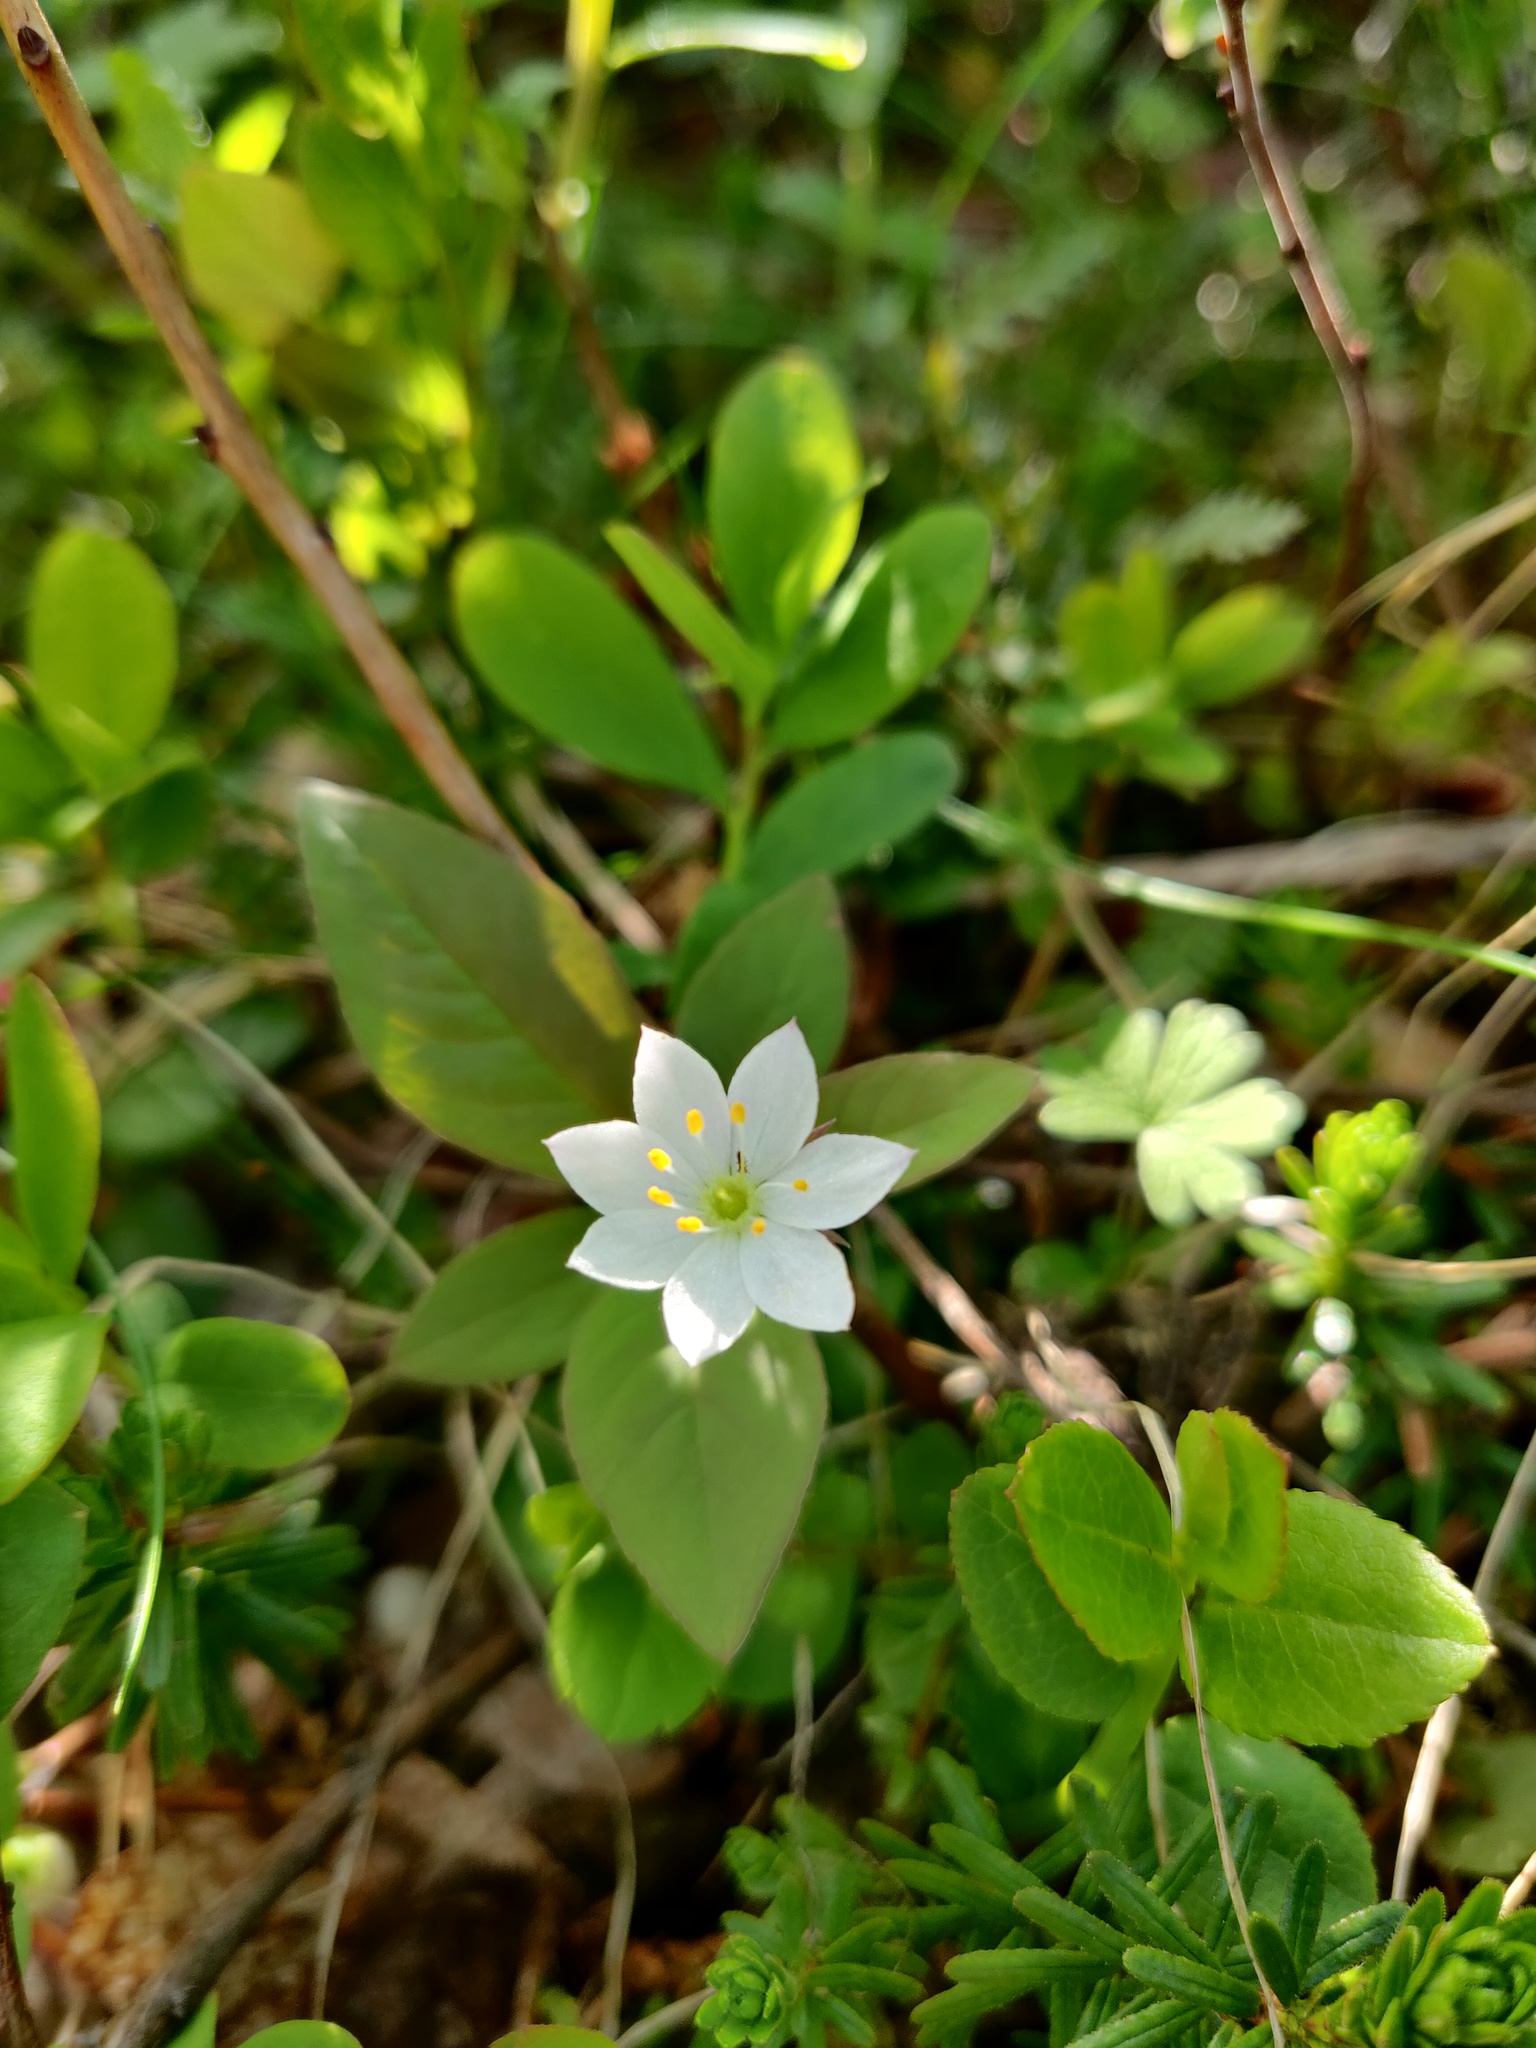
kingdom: Plantae
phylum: Tracheophyta
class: Magnoliopsida
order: Ericales
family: Primulaceae
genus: Lysimachia
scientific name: Lysimachia europaea
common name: Arctic starflower
